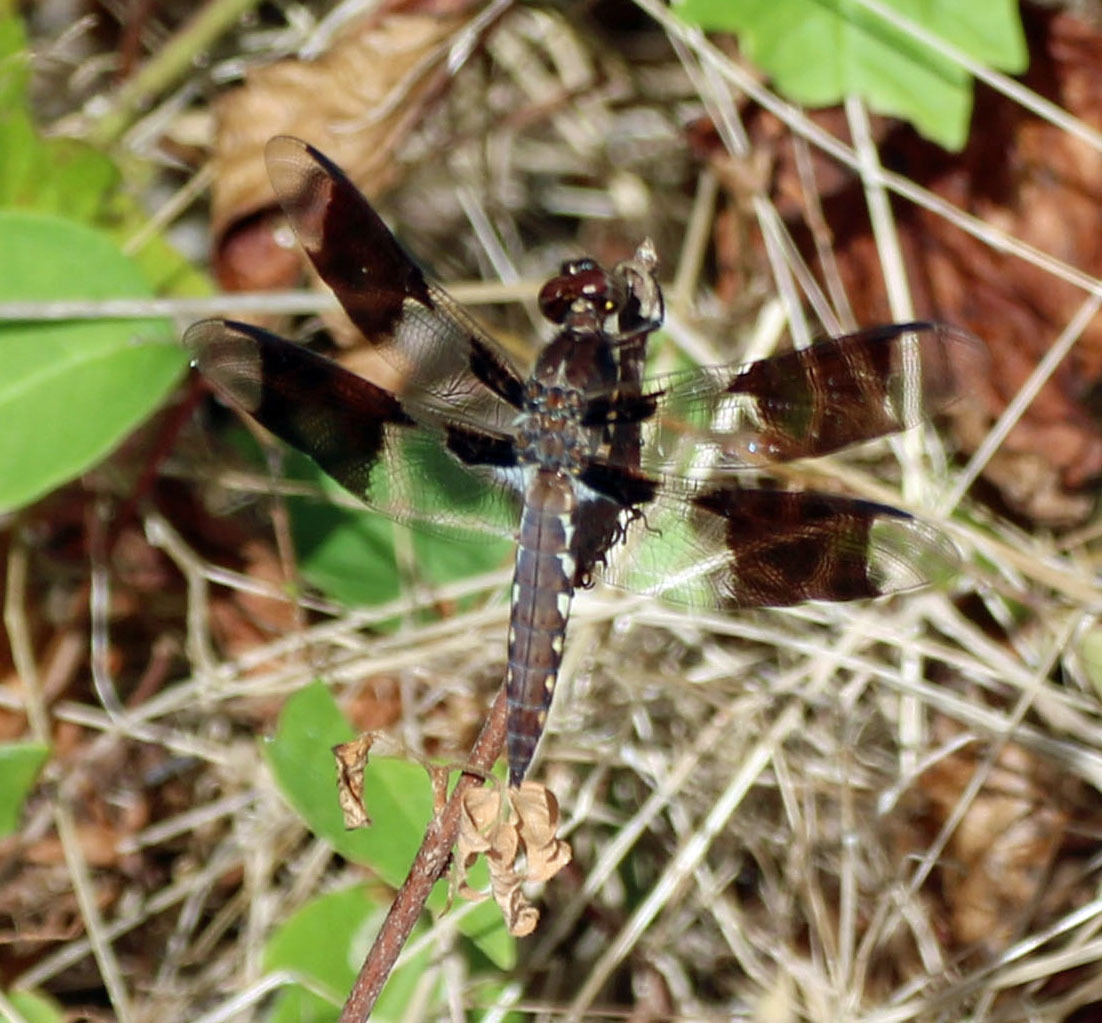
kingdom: Animalia
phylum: Arthropoda
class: Insecta
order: Odonata
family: Libellulidae
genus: Plathemis
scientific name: Plathemis lydia
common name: Common whitetail
